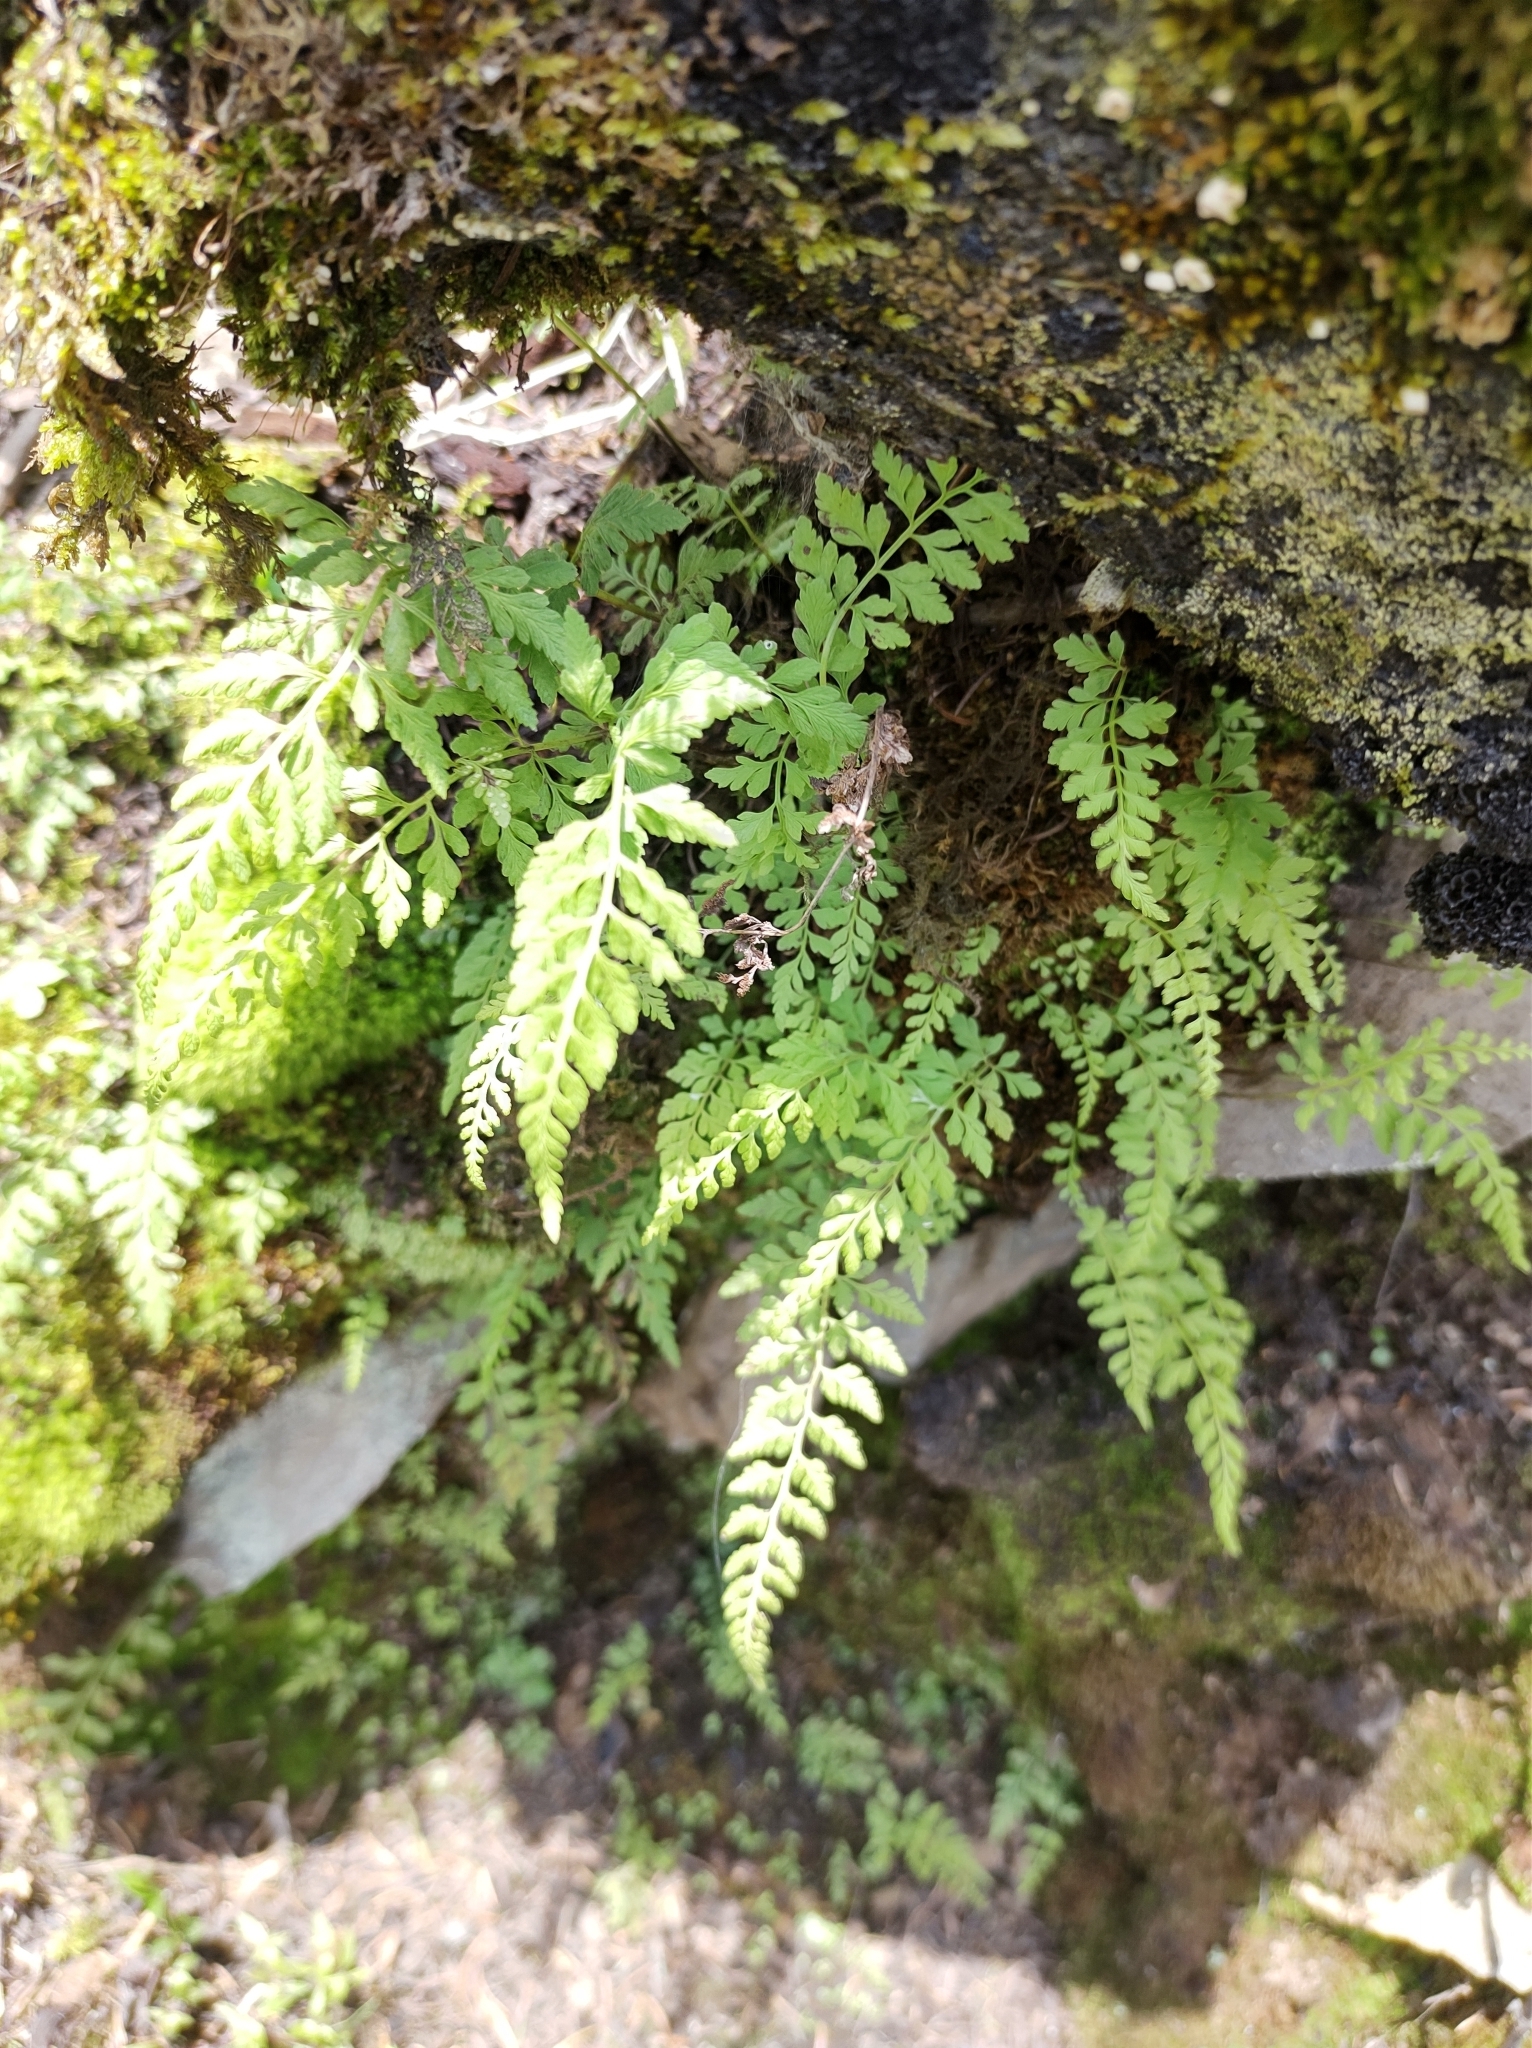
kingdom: Plantae
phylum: Tracheophyta
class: Polypodiopsida
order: Polypodiales
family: Cystopteridaceae
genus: Cystopteris
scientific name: Cystopteris fragilis
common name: Brittle bladder fern
